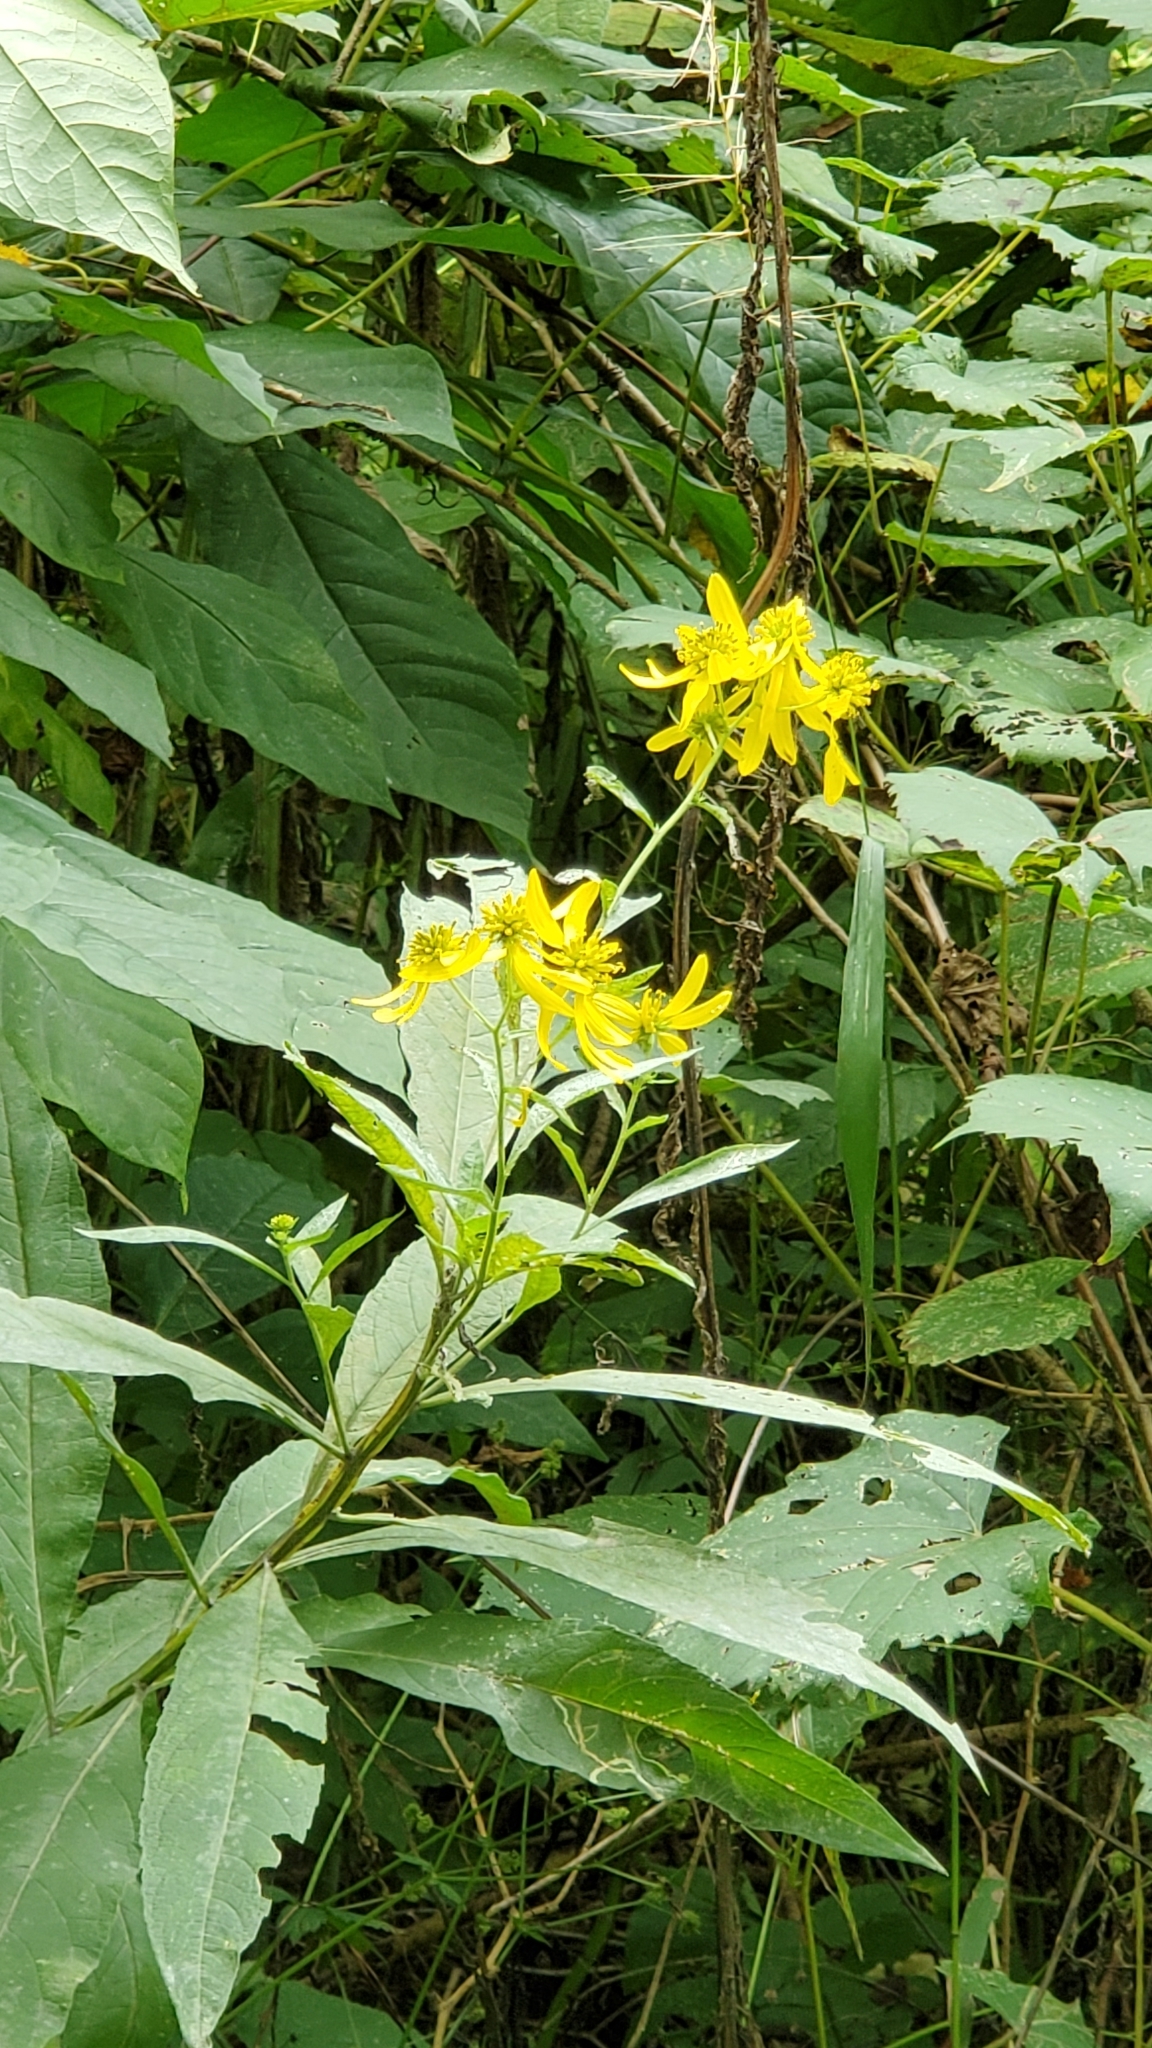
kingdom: Plantae
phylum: Tracheophyta
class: Magnoliopsida
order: Asterales
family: Asteraceae
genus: Verbesina
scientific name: Verbesina alternifolia
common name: Wingstem
